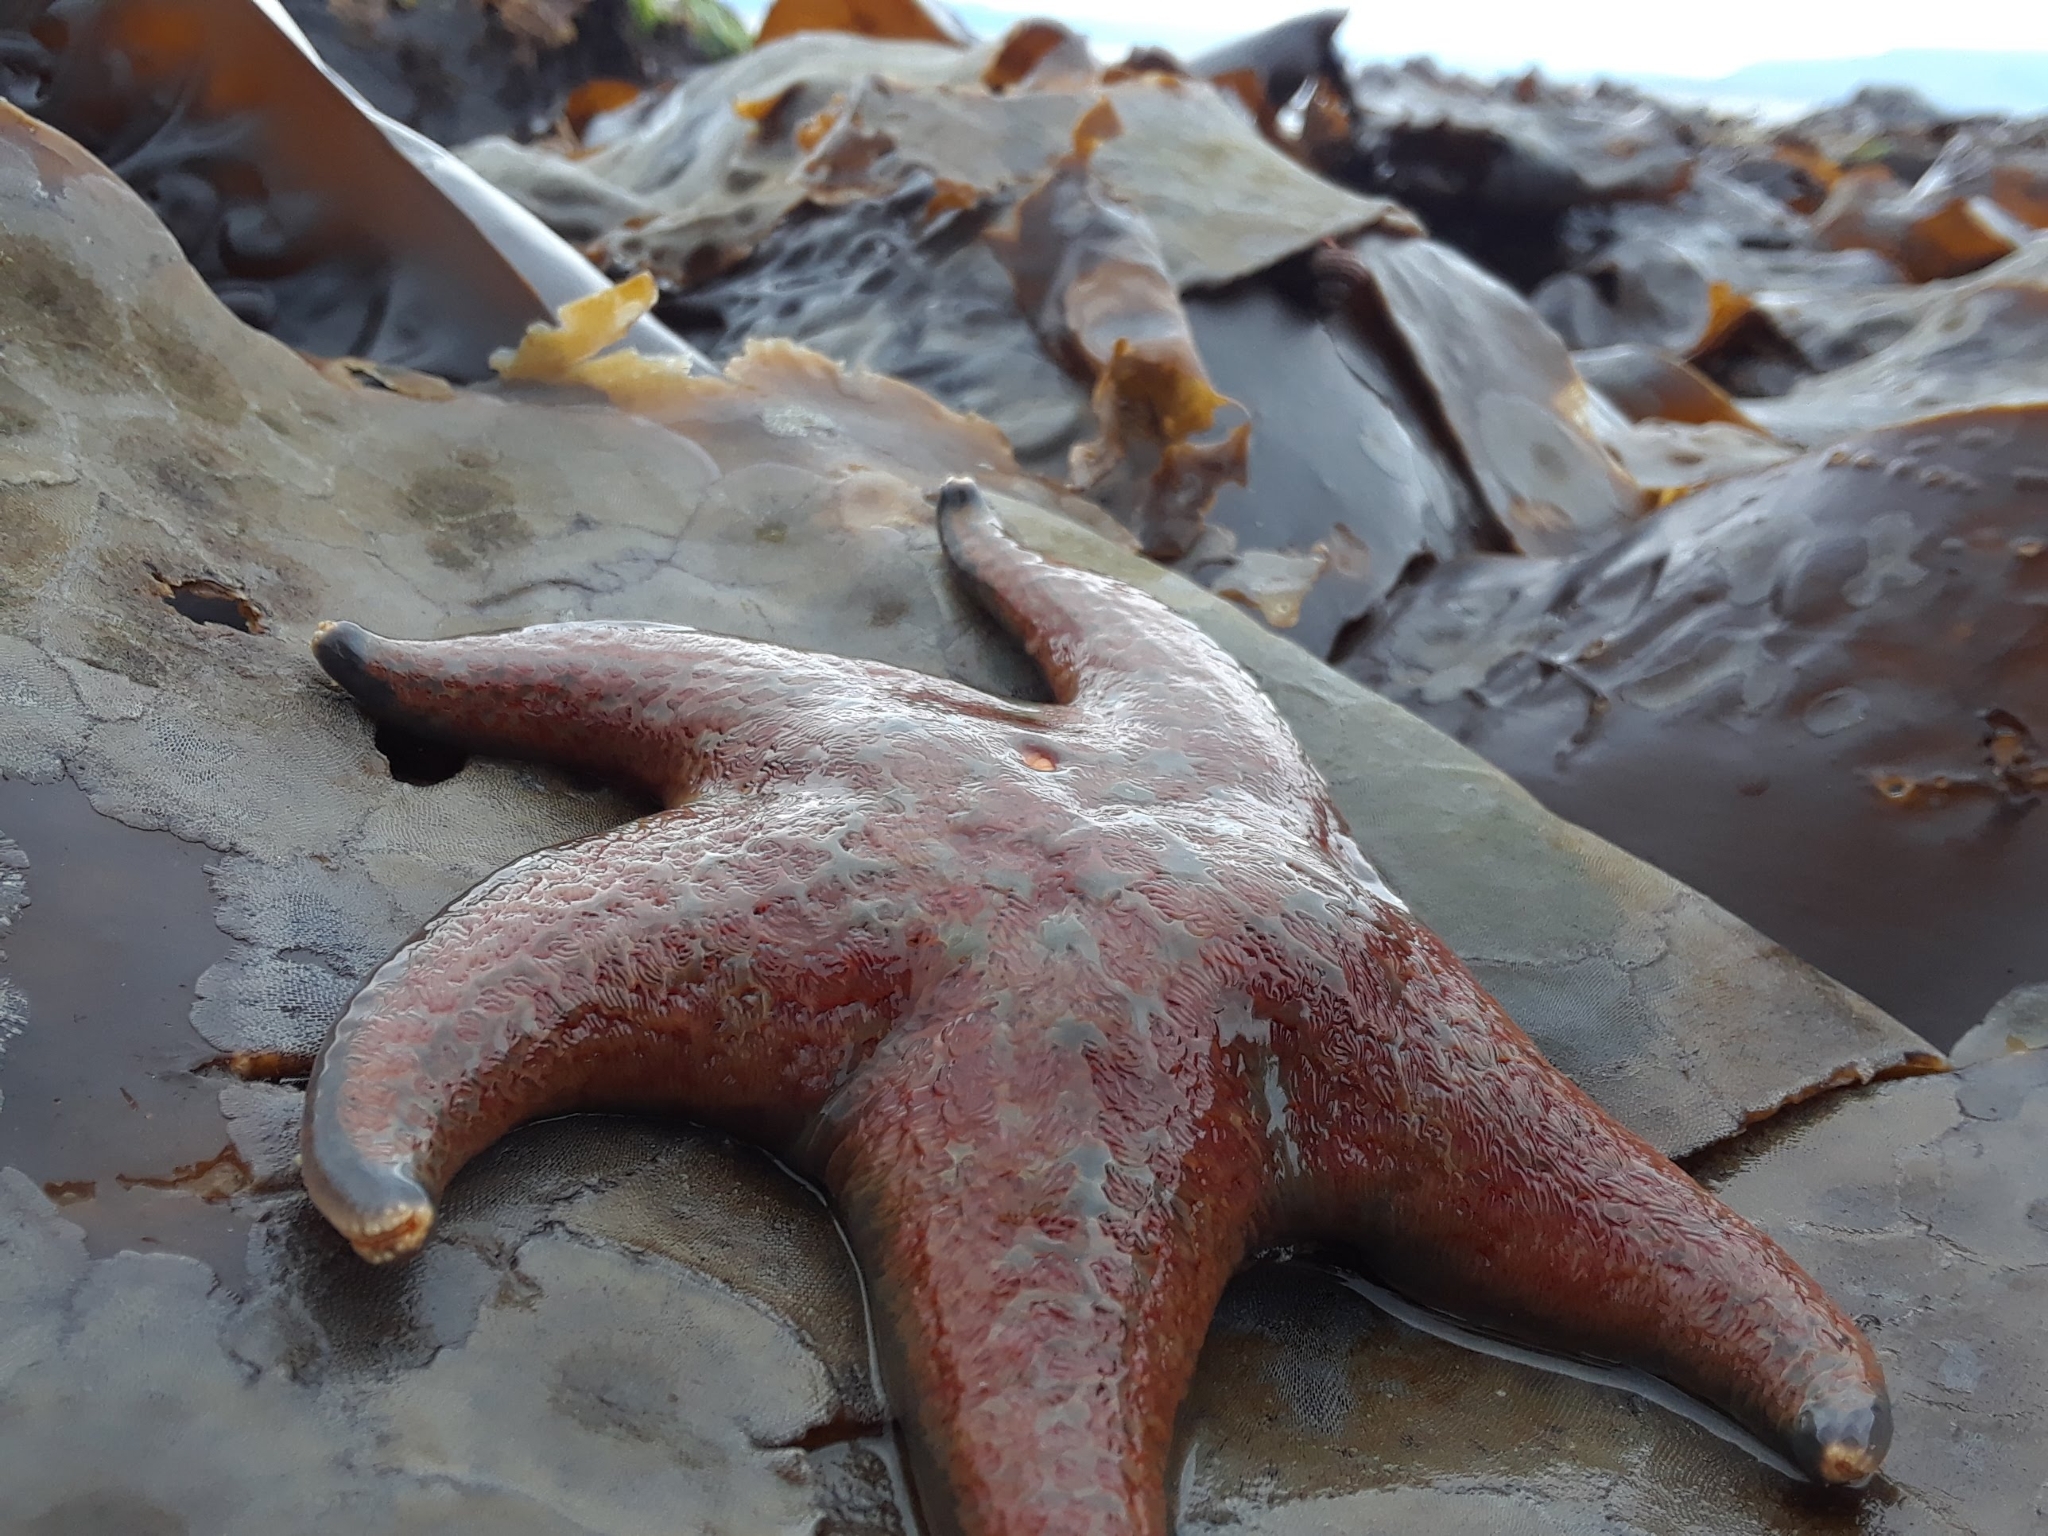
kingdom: Animalia
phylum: Echinodermata
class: Asteroidea
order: Valvatida
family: Asteropseidae
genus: Dermasterias
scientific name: Dermasterias imbricata
